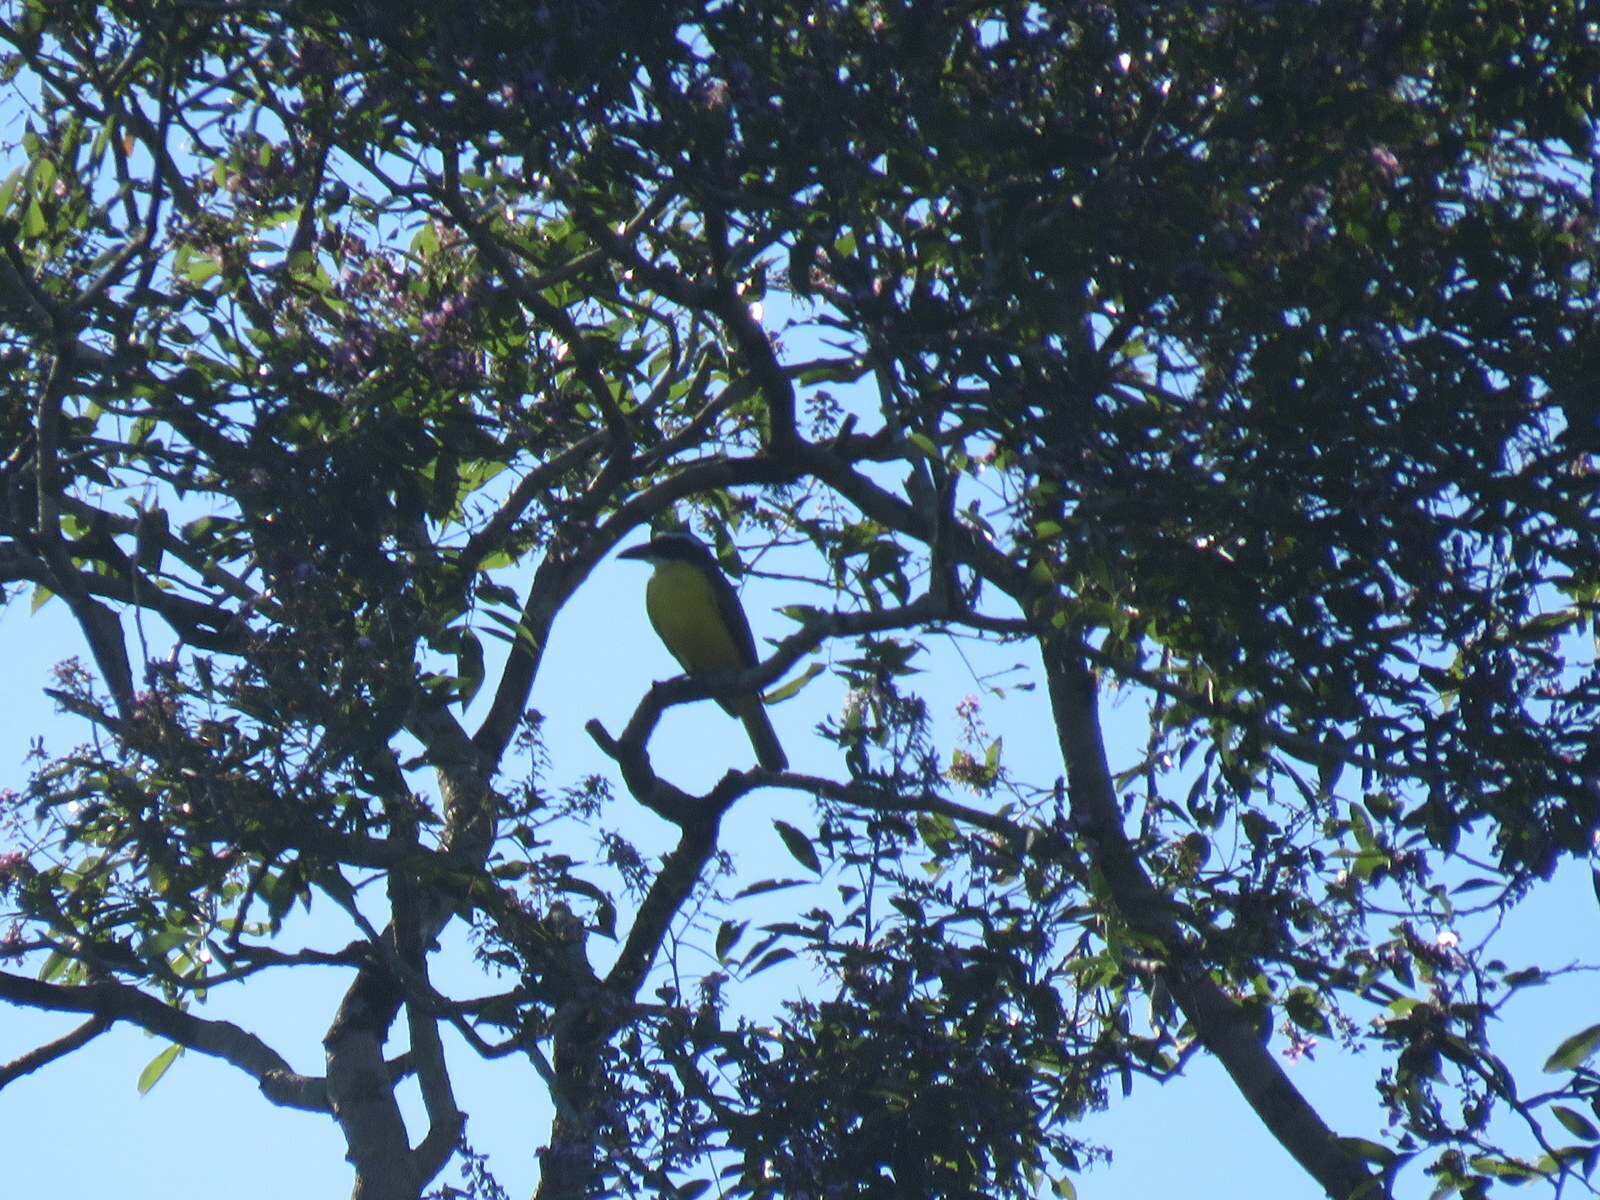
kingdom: Animalia
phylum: Chordata
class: Aves
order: Passeriformes
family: Tyrannidae
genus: Megarynchus
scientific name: Megarynchus pitangua
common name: Boat-billed flycatcher
